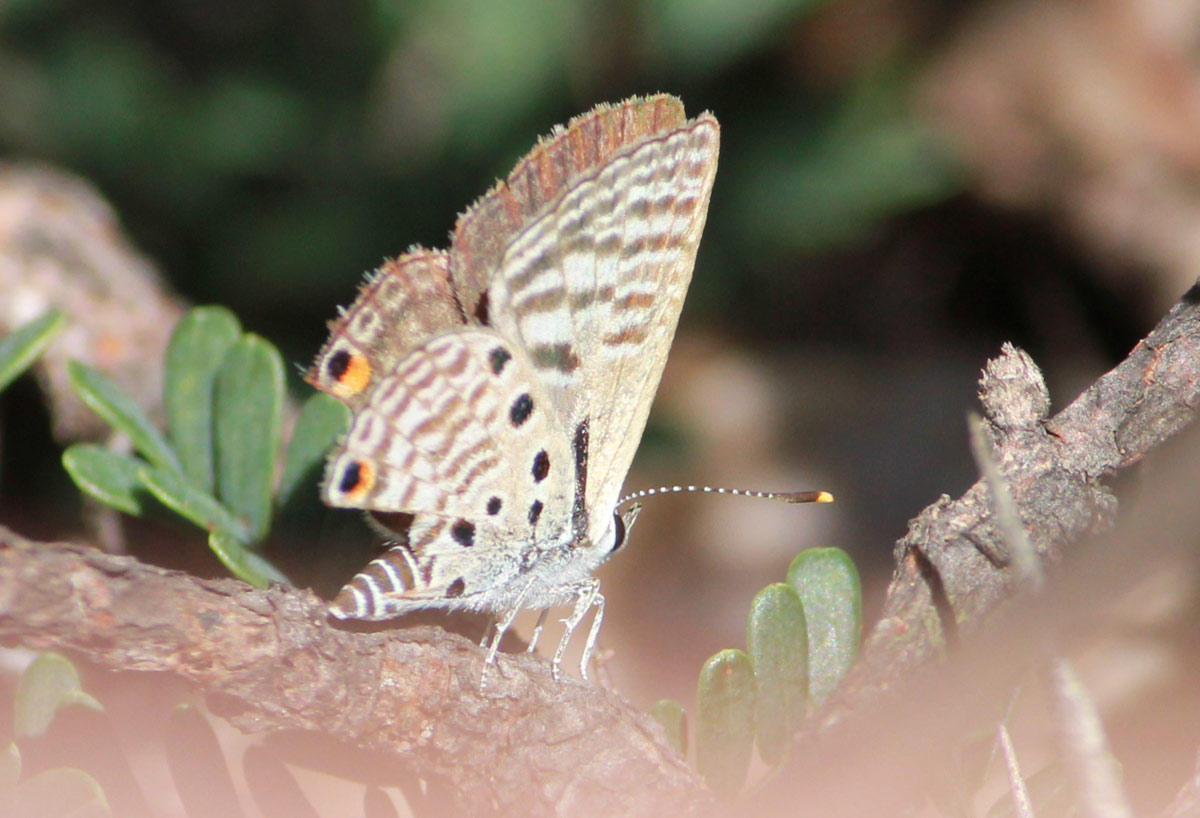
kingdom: Animalia
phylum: Arthropoda
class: Insecta
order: Lepidoptera
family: Lycaenidae
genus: Anthene
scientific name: Anthene amarah
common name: Black-striped hairtail
